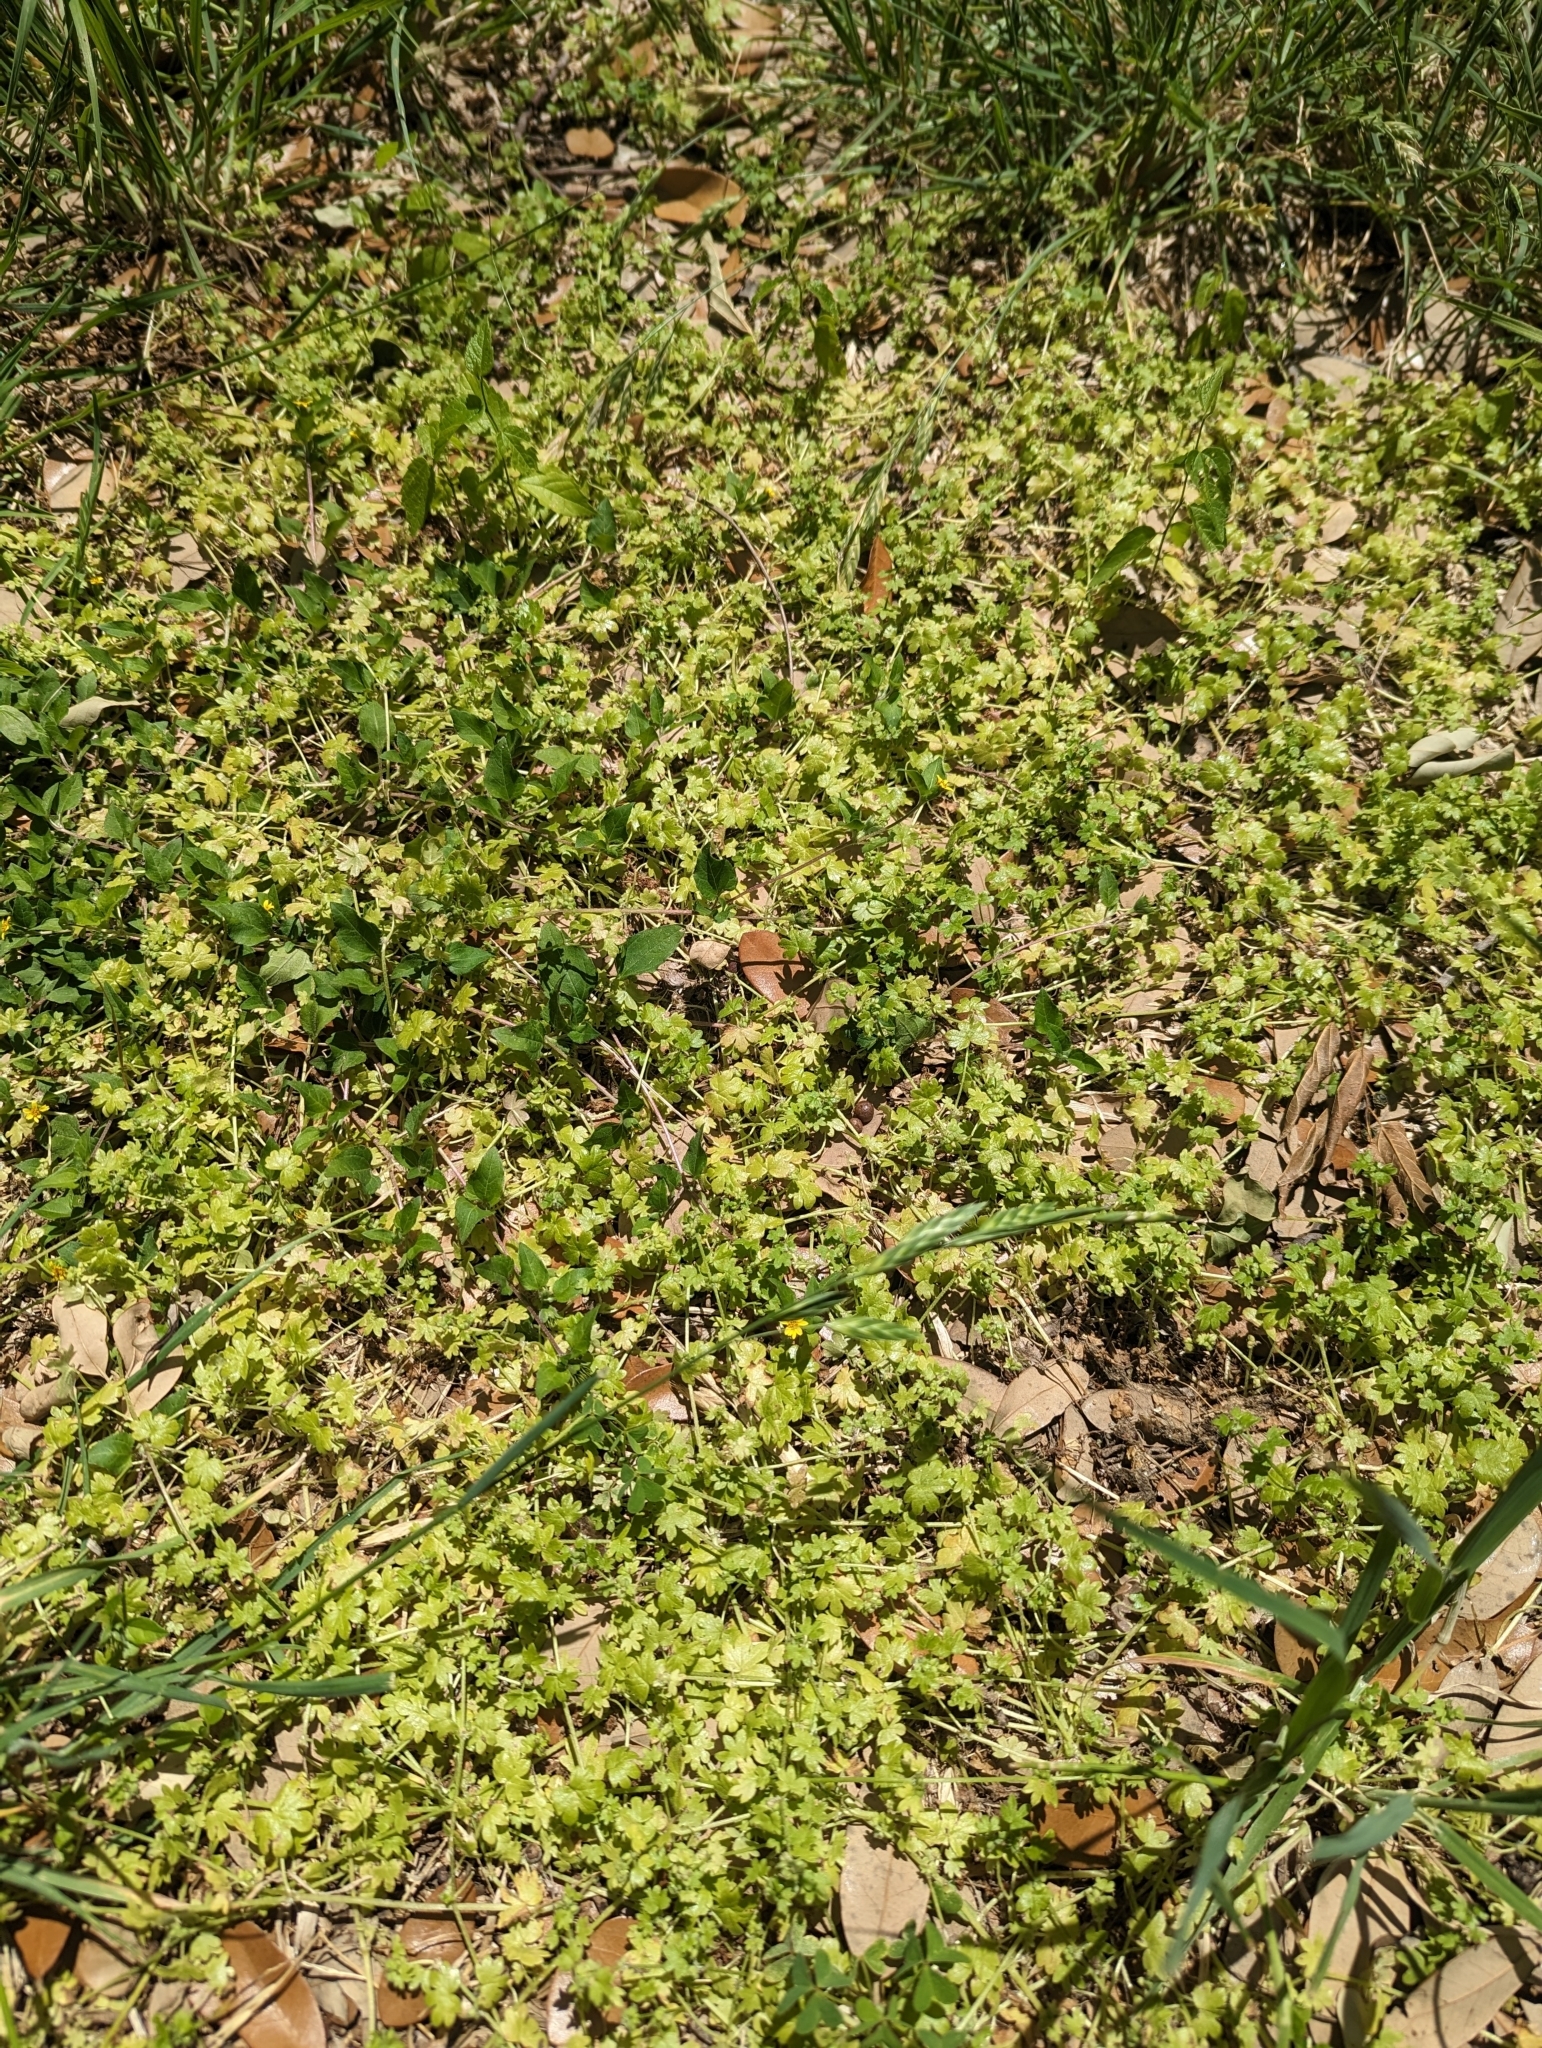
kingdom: Plantae
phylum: Tracheophyta
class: Magnoliopsida
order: Apiales
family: Apiaceae
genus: Bowlesia
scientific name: Bowlesia incana
